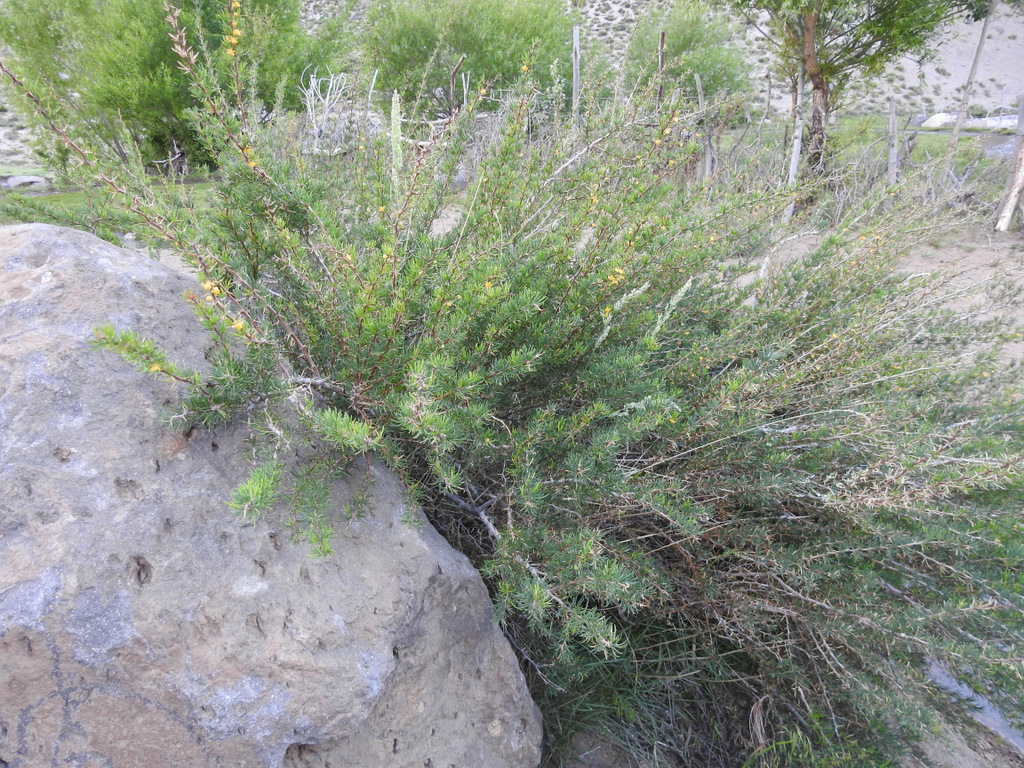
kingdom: Plantae
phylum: Tracheophyta
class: Magnoliopsida
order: Ranunculales
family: Berberidaceae
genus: Berberis
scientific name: Berberis empetrifolia
